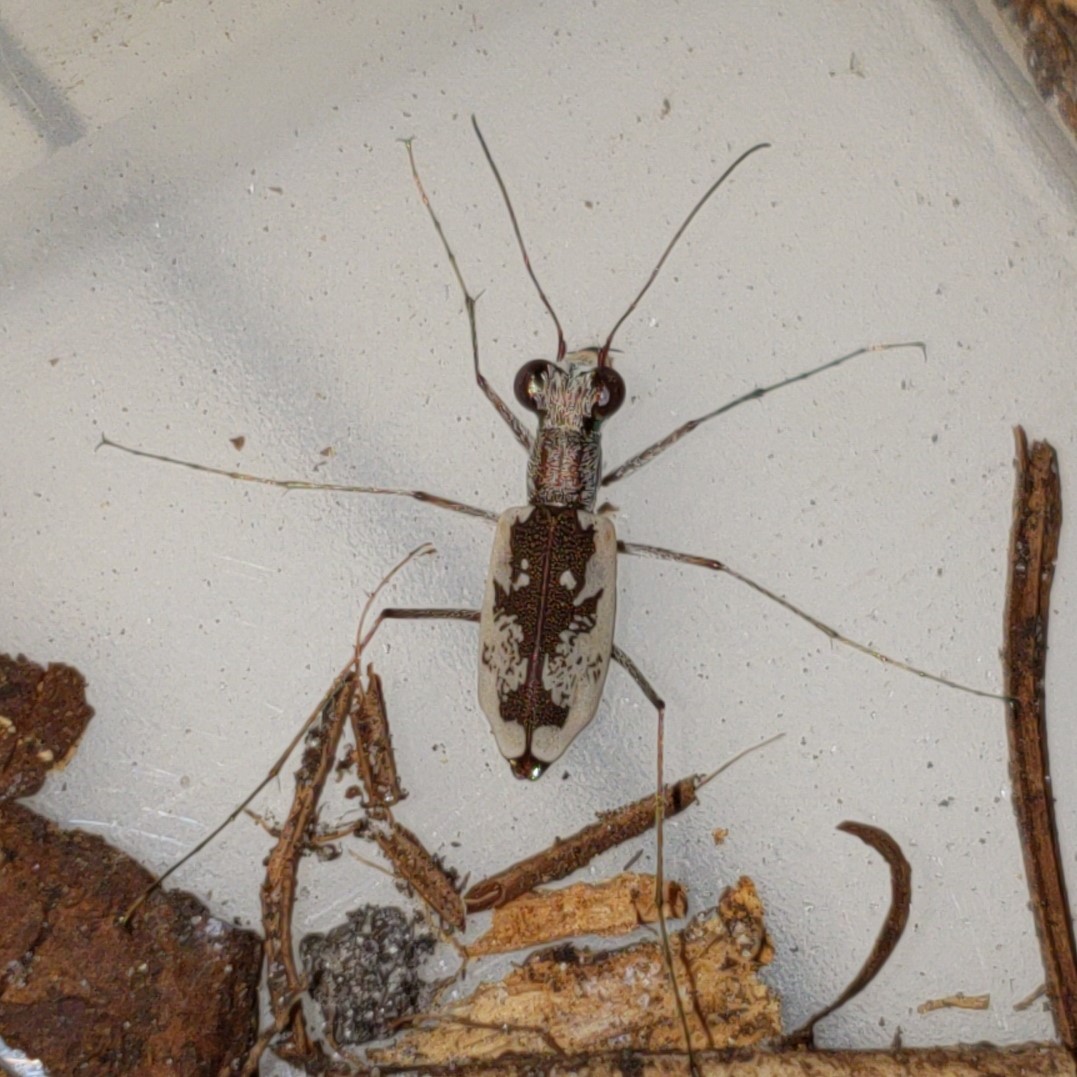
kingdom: Animalia
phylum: Arthropoda
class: Insecta
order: Coleoptera
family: Carabidae
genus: Ellipsoptera
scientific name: Ellipsoptera hirtilabris
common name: Moustached tiger beetle
